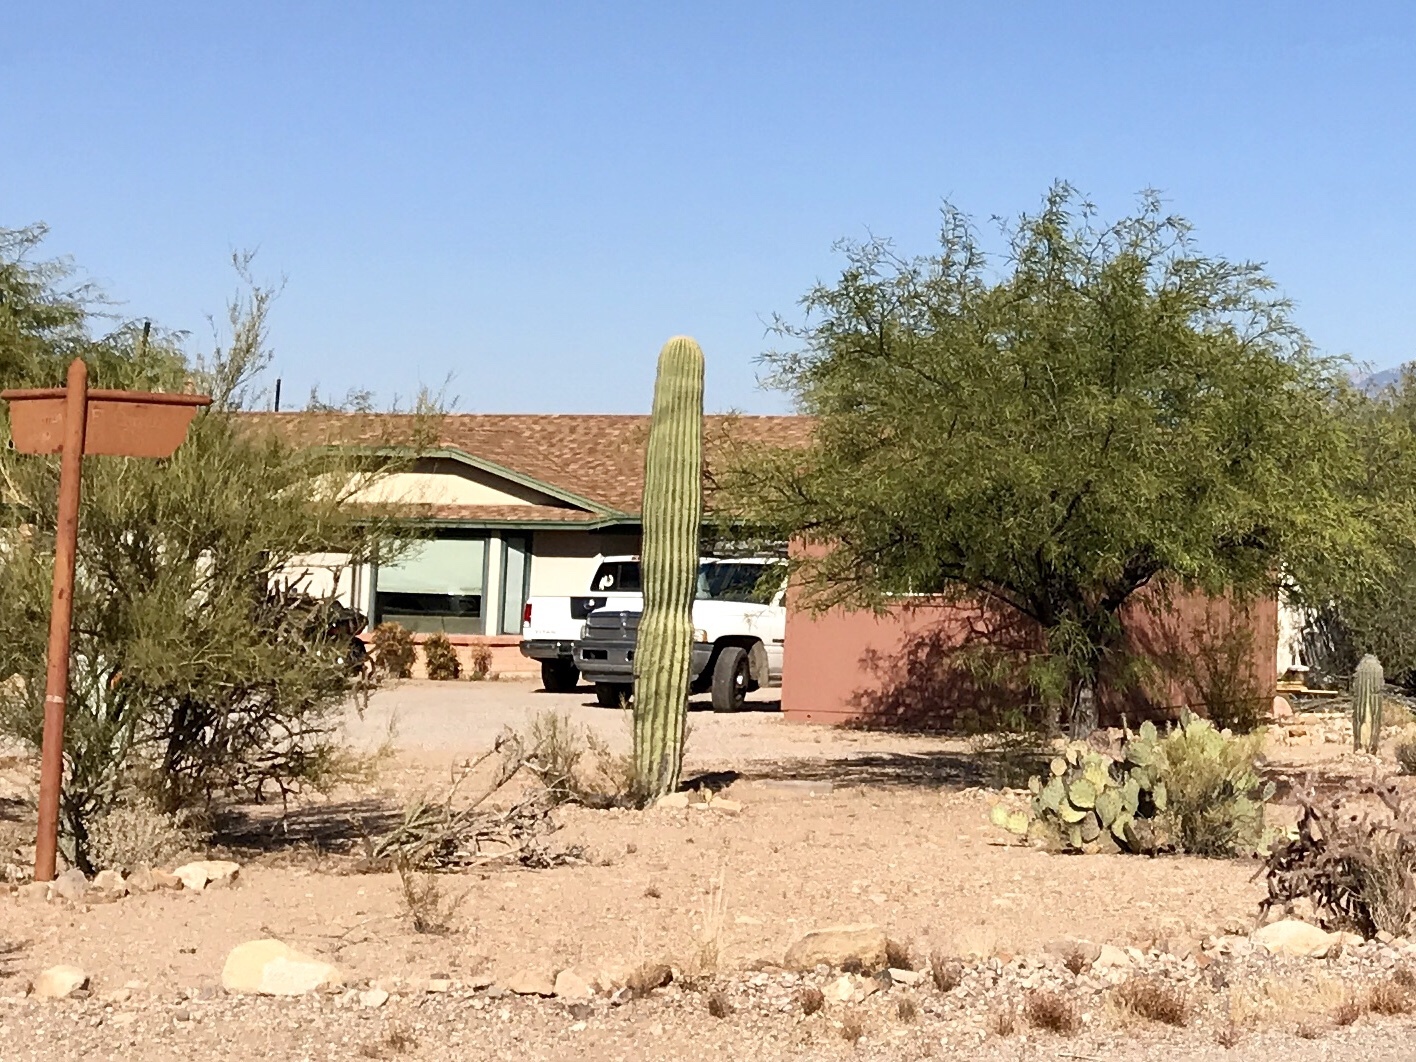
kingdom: Plantae
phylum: Tracheophyta
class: Magnoliopsida
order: Caryophyllales
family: Cactaceae
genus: Carnegiea
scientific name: Carnegiea gigantea
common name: Saguaro
